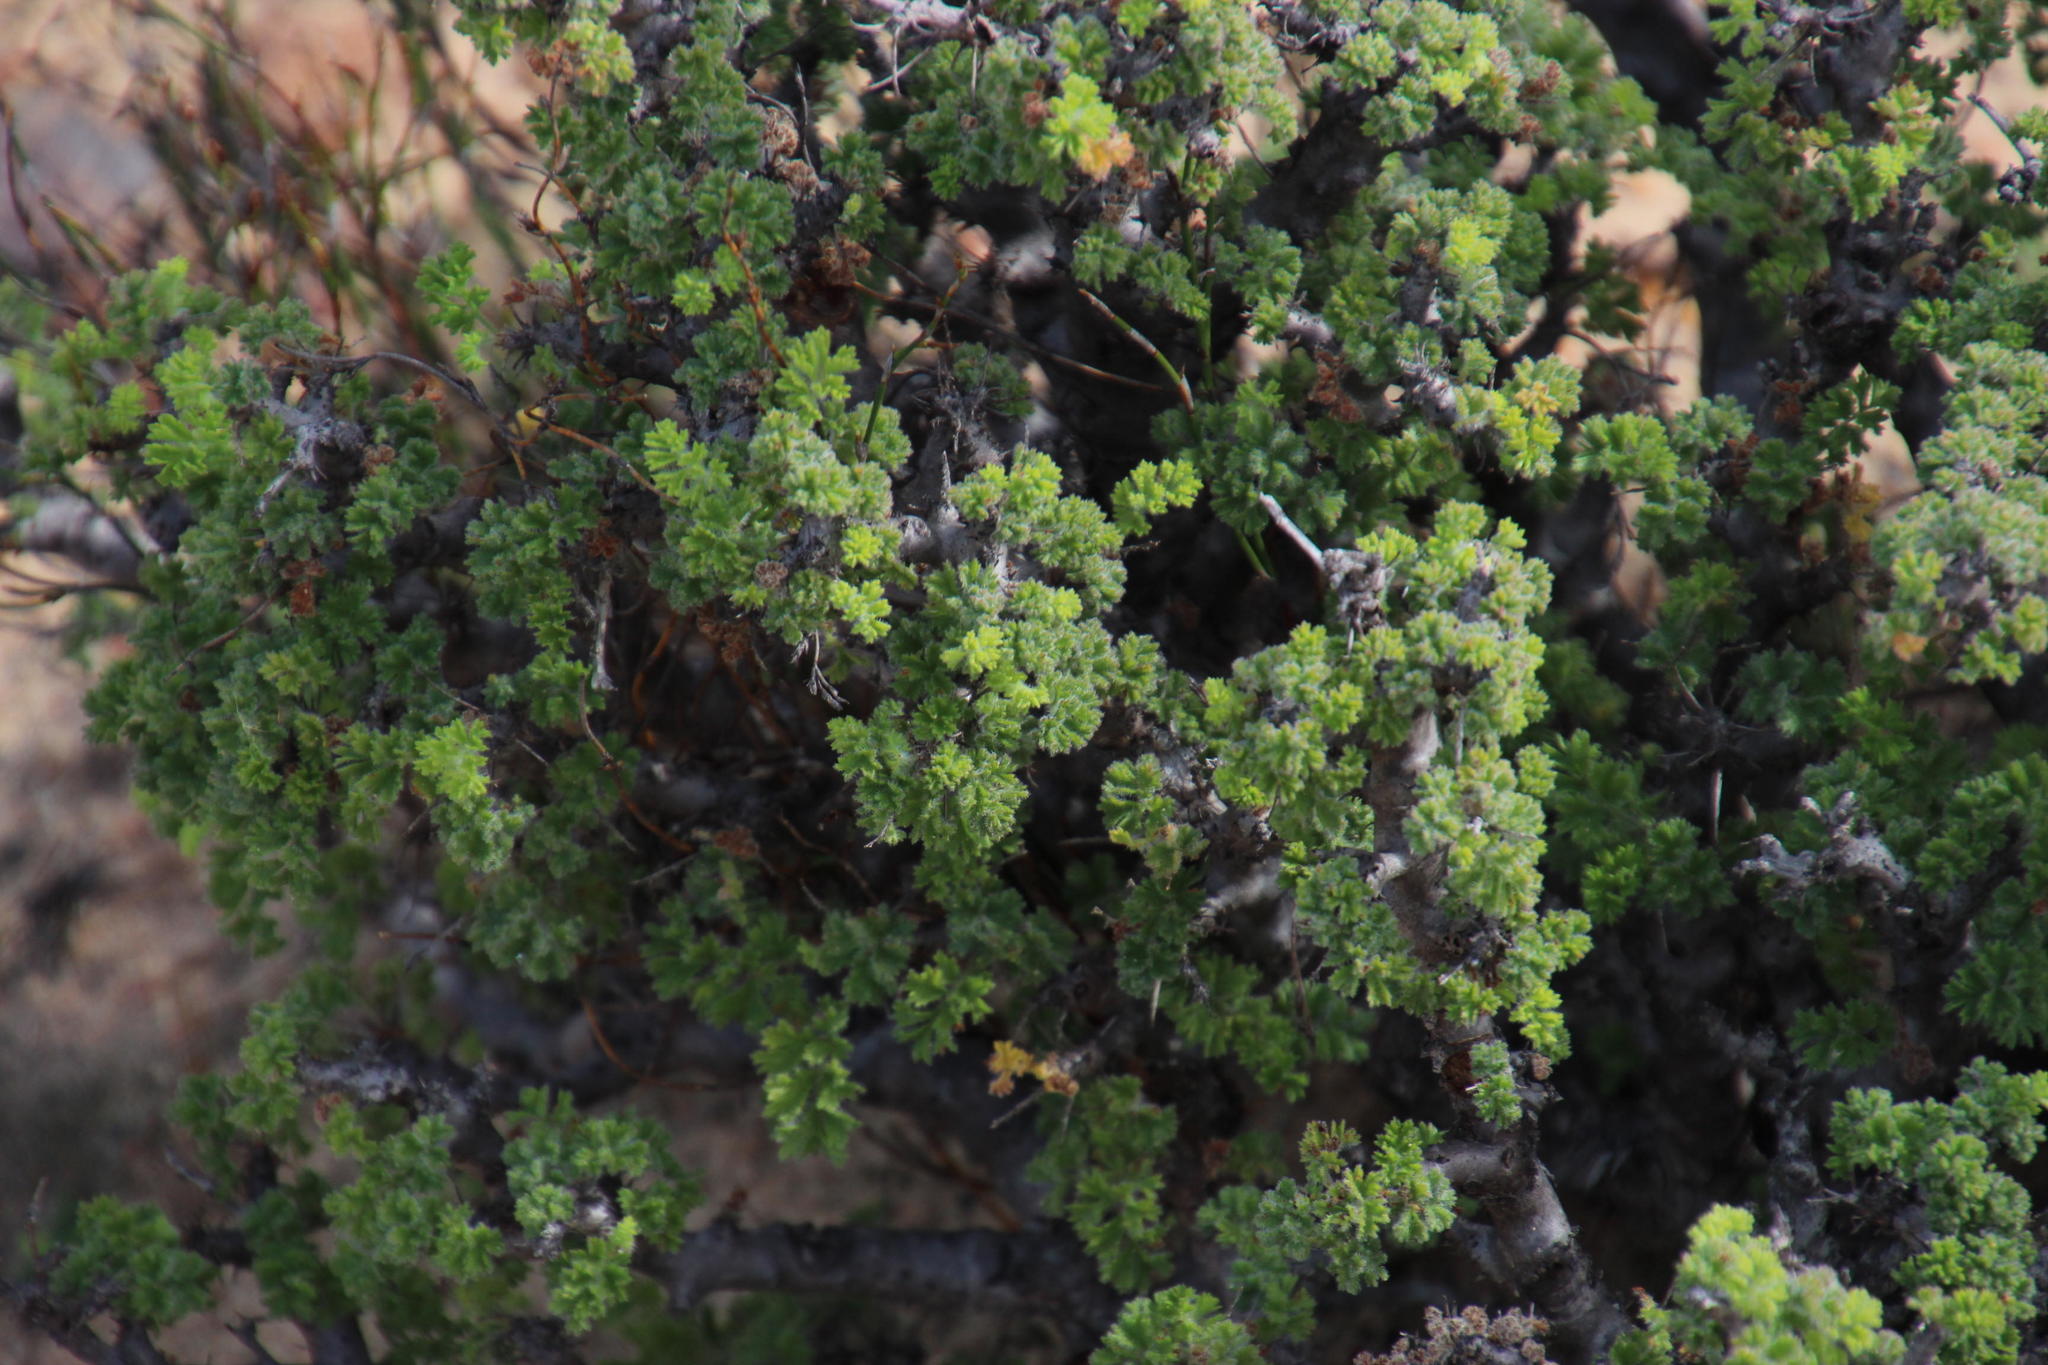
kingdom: Plantae
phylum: Tracheophyta
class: Magnoliopsida
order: Geraniales
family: Geraniaceae
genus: Pelargonium
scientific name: Pelargonium alternans
